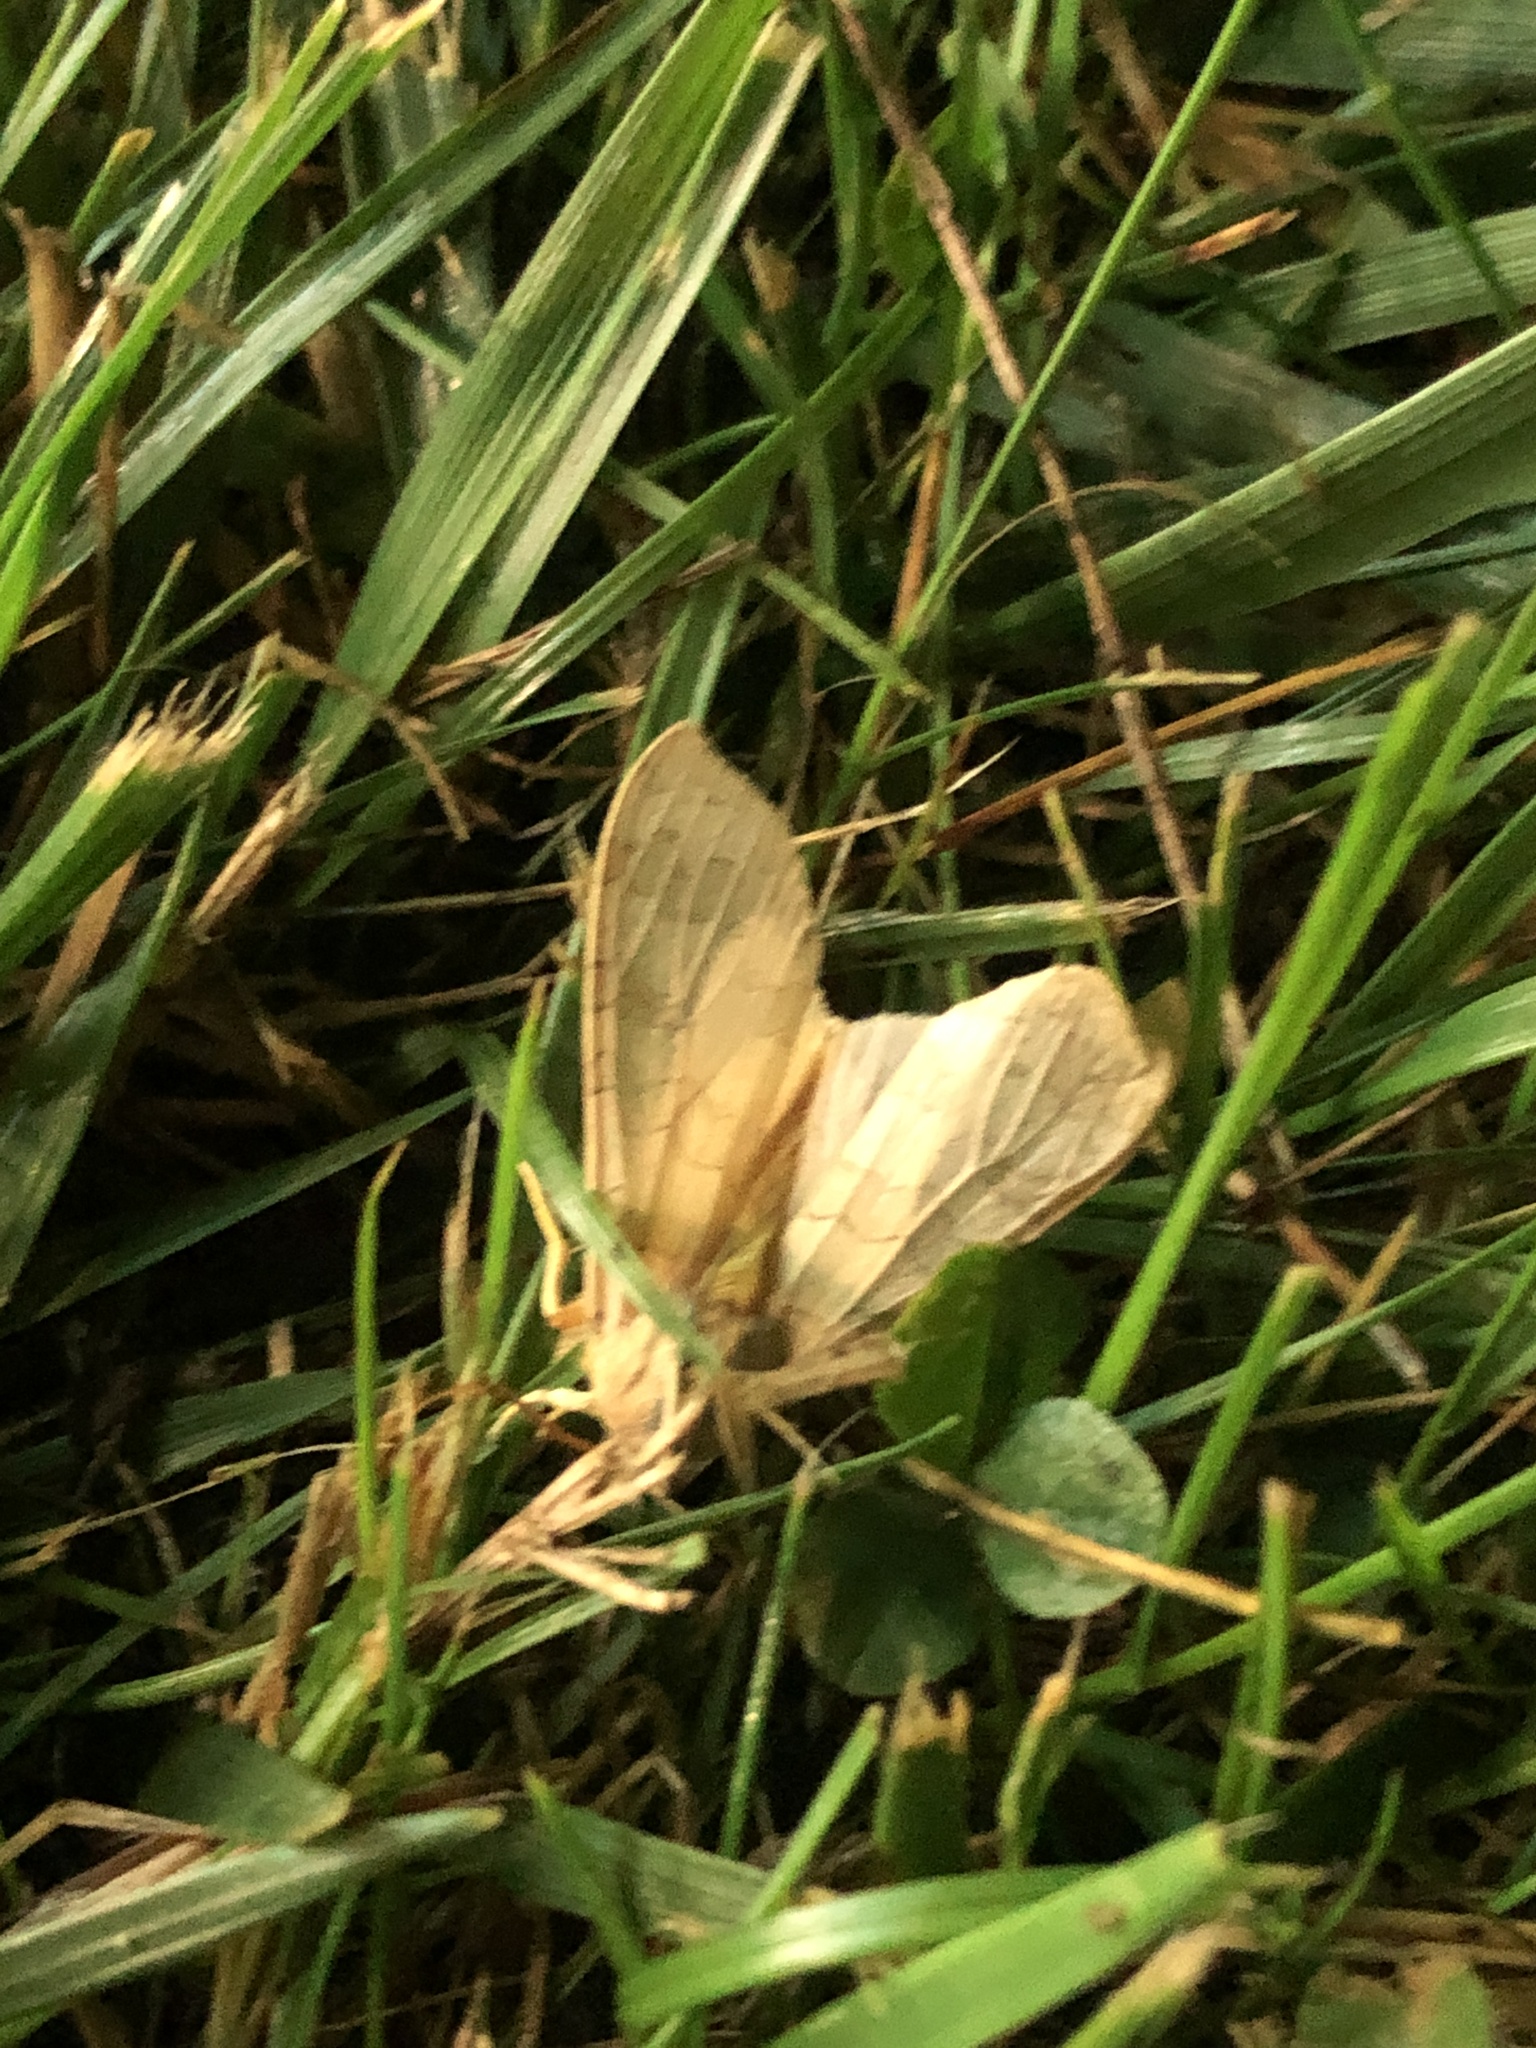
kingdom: Animalia
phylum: Arthropoda
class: Insecta
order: Lepidoptera
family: Erebidae
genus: Halysidota
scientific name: Halysidota
